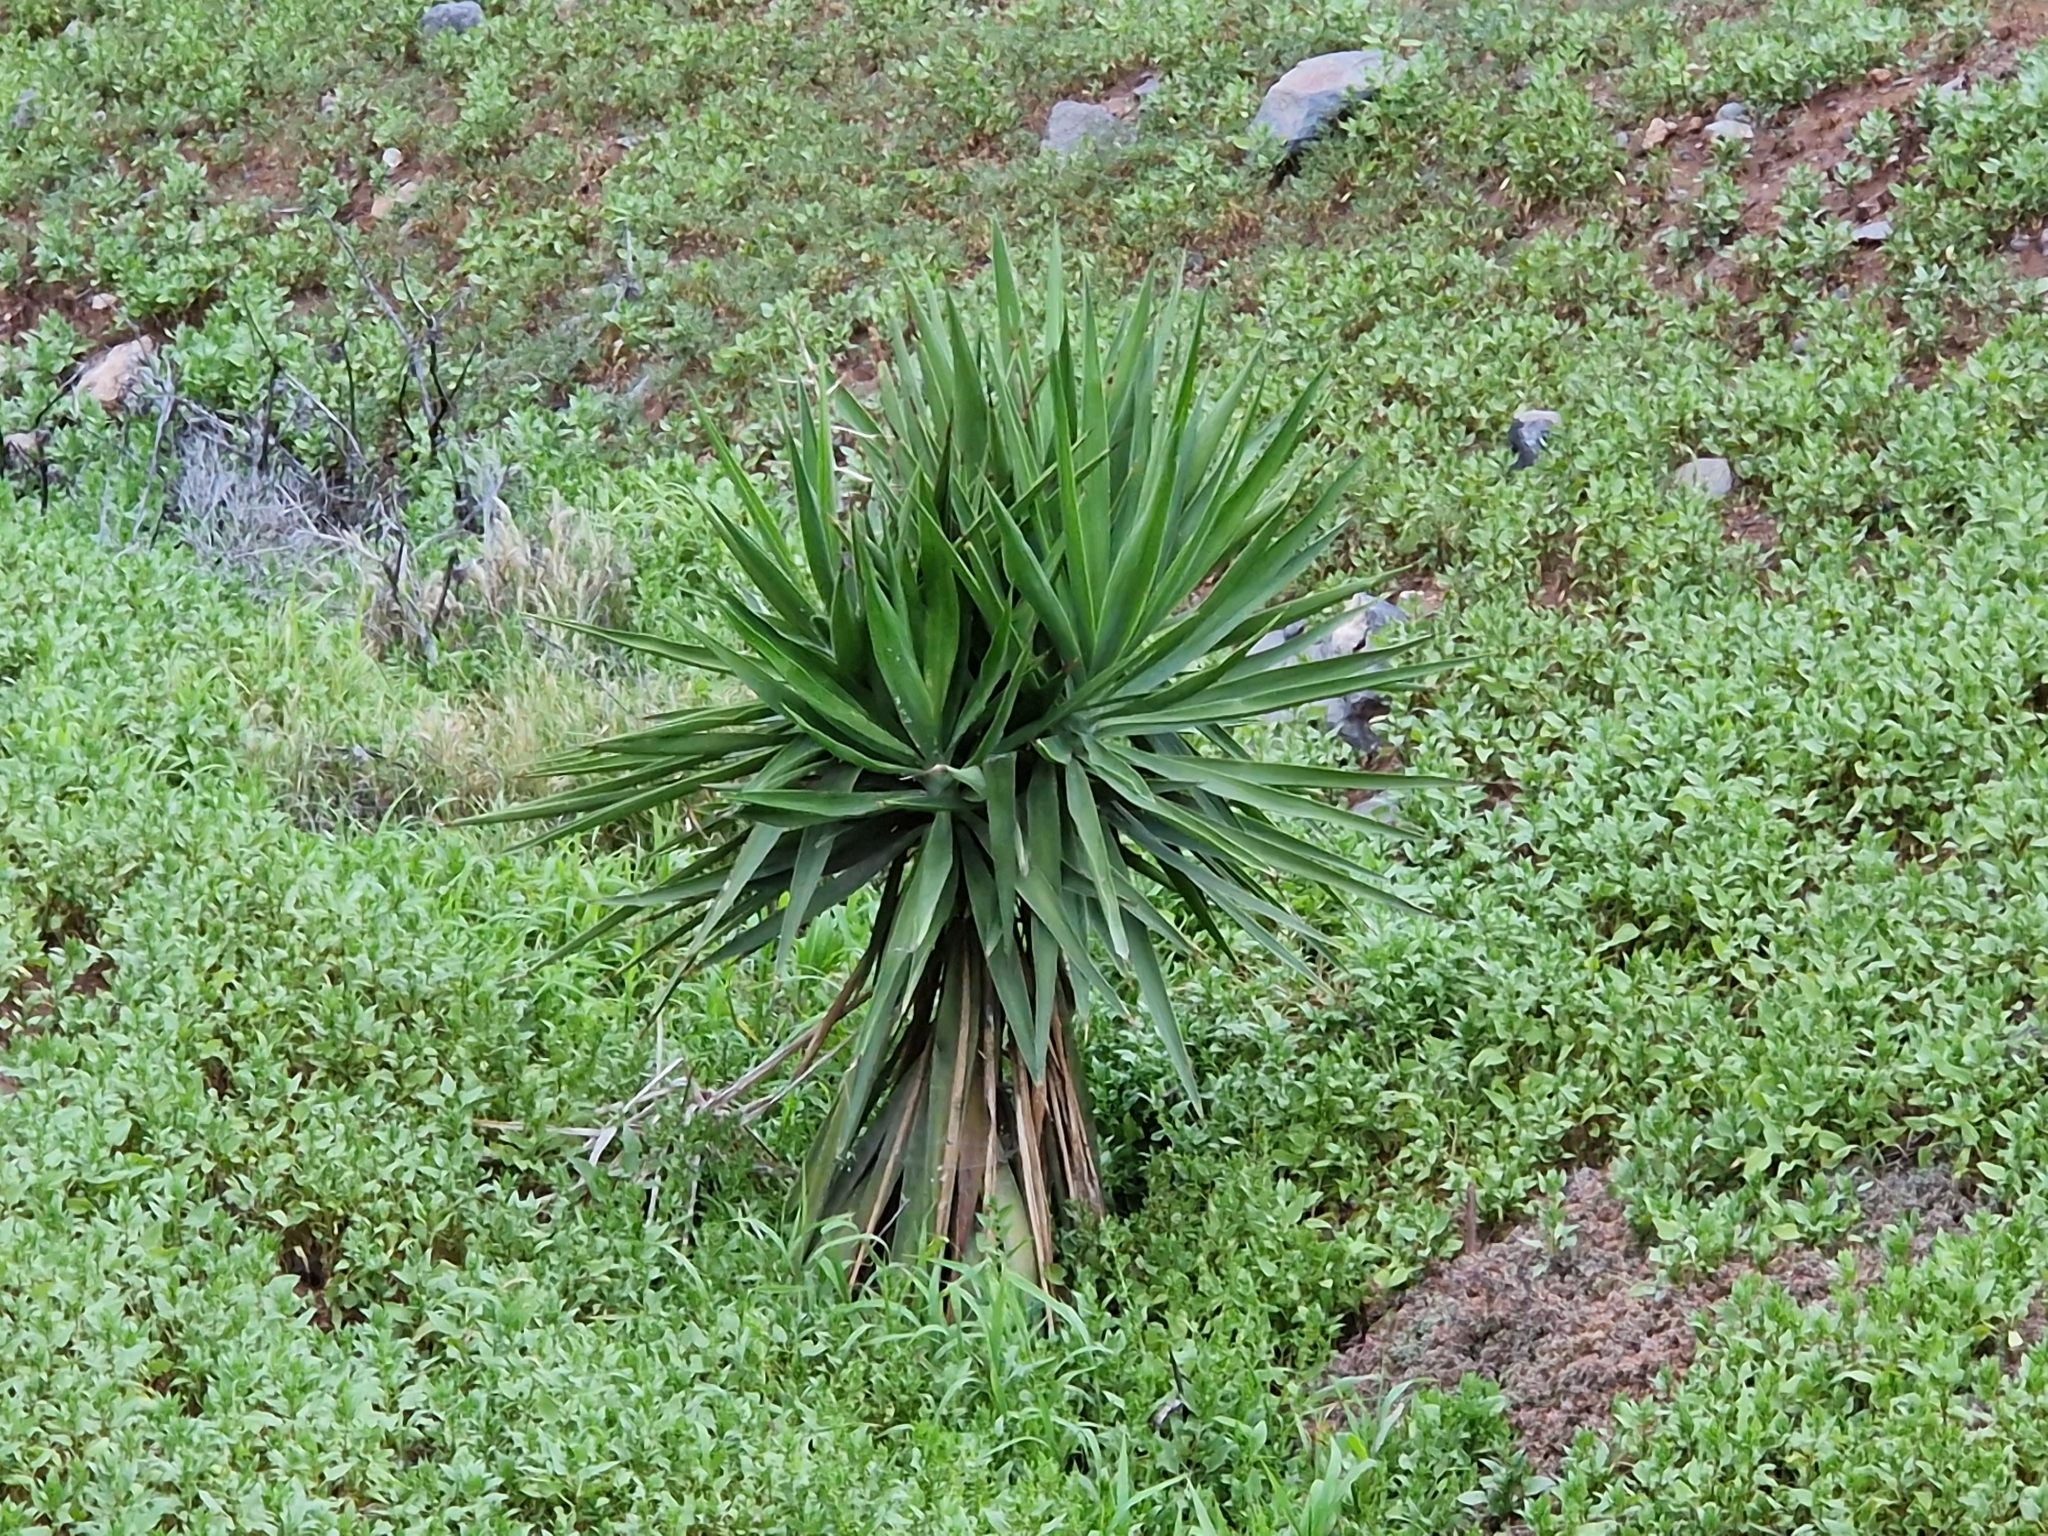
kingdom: Plantae
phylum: Tracheophyta
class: Liliopsida
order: Asparagales
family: Asparagaceae
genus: Yucca
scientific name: Yucca gigantea
